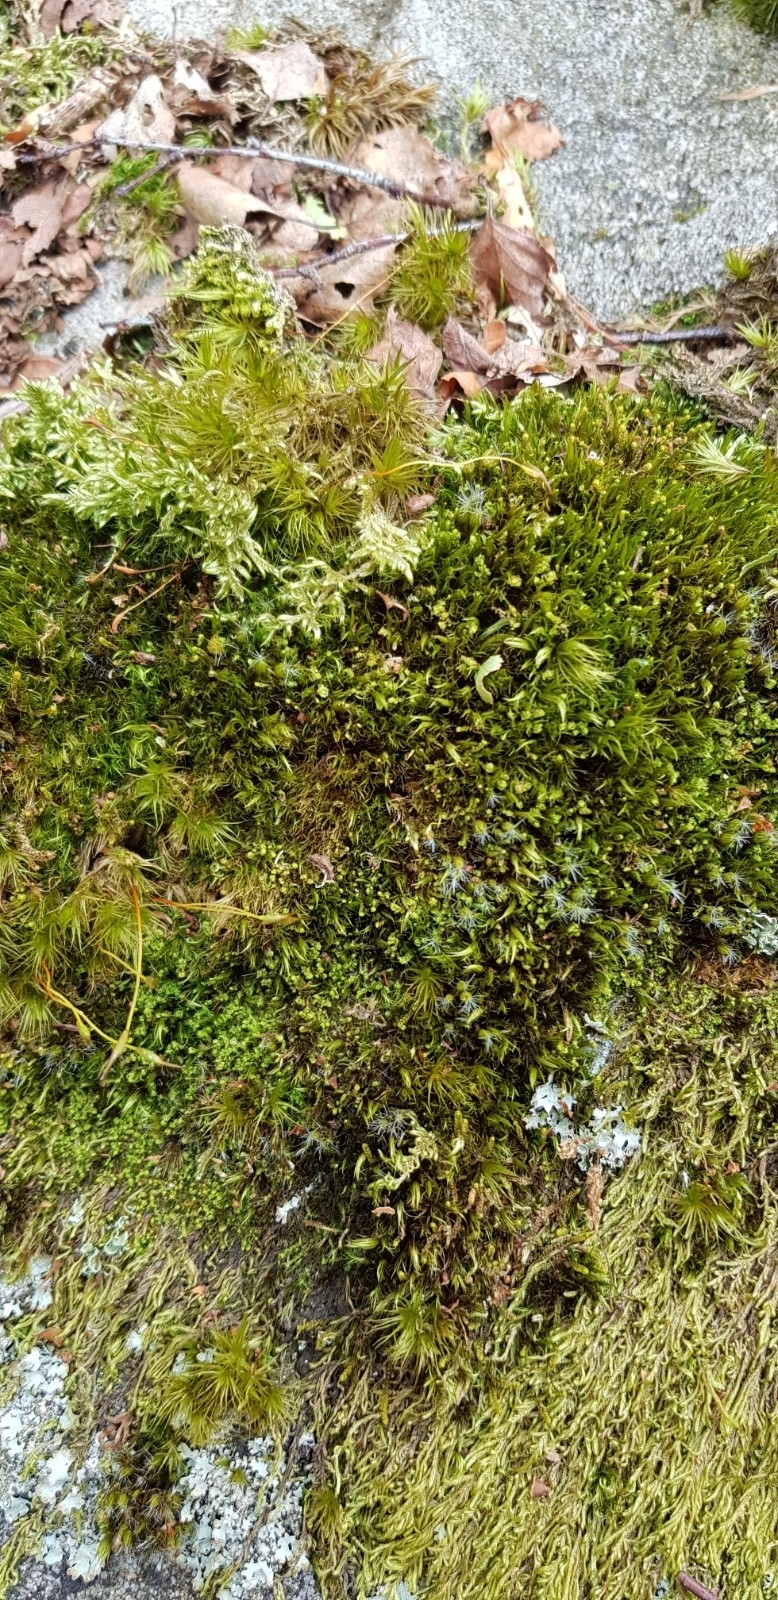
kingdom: Plantae
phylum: Marchantiophyta
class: Jungermanniopsida
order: Jungermanniales
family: Lophoziaceae
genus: Lophozia
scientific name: Lophozia ventricosa
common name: Tumid notchwort
